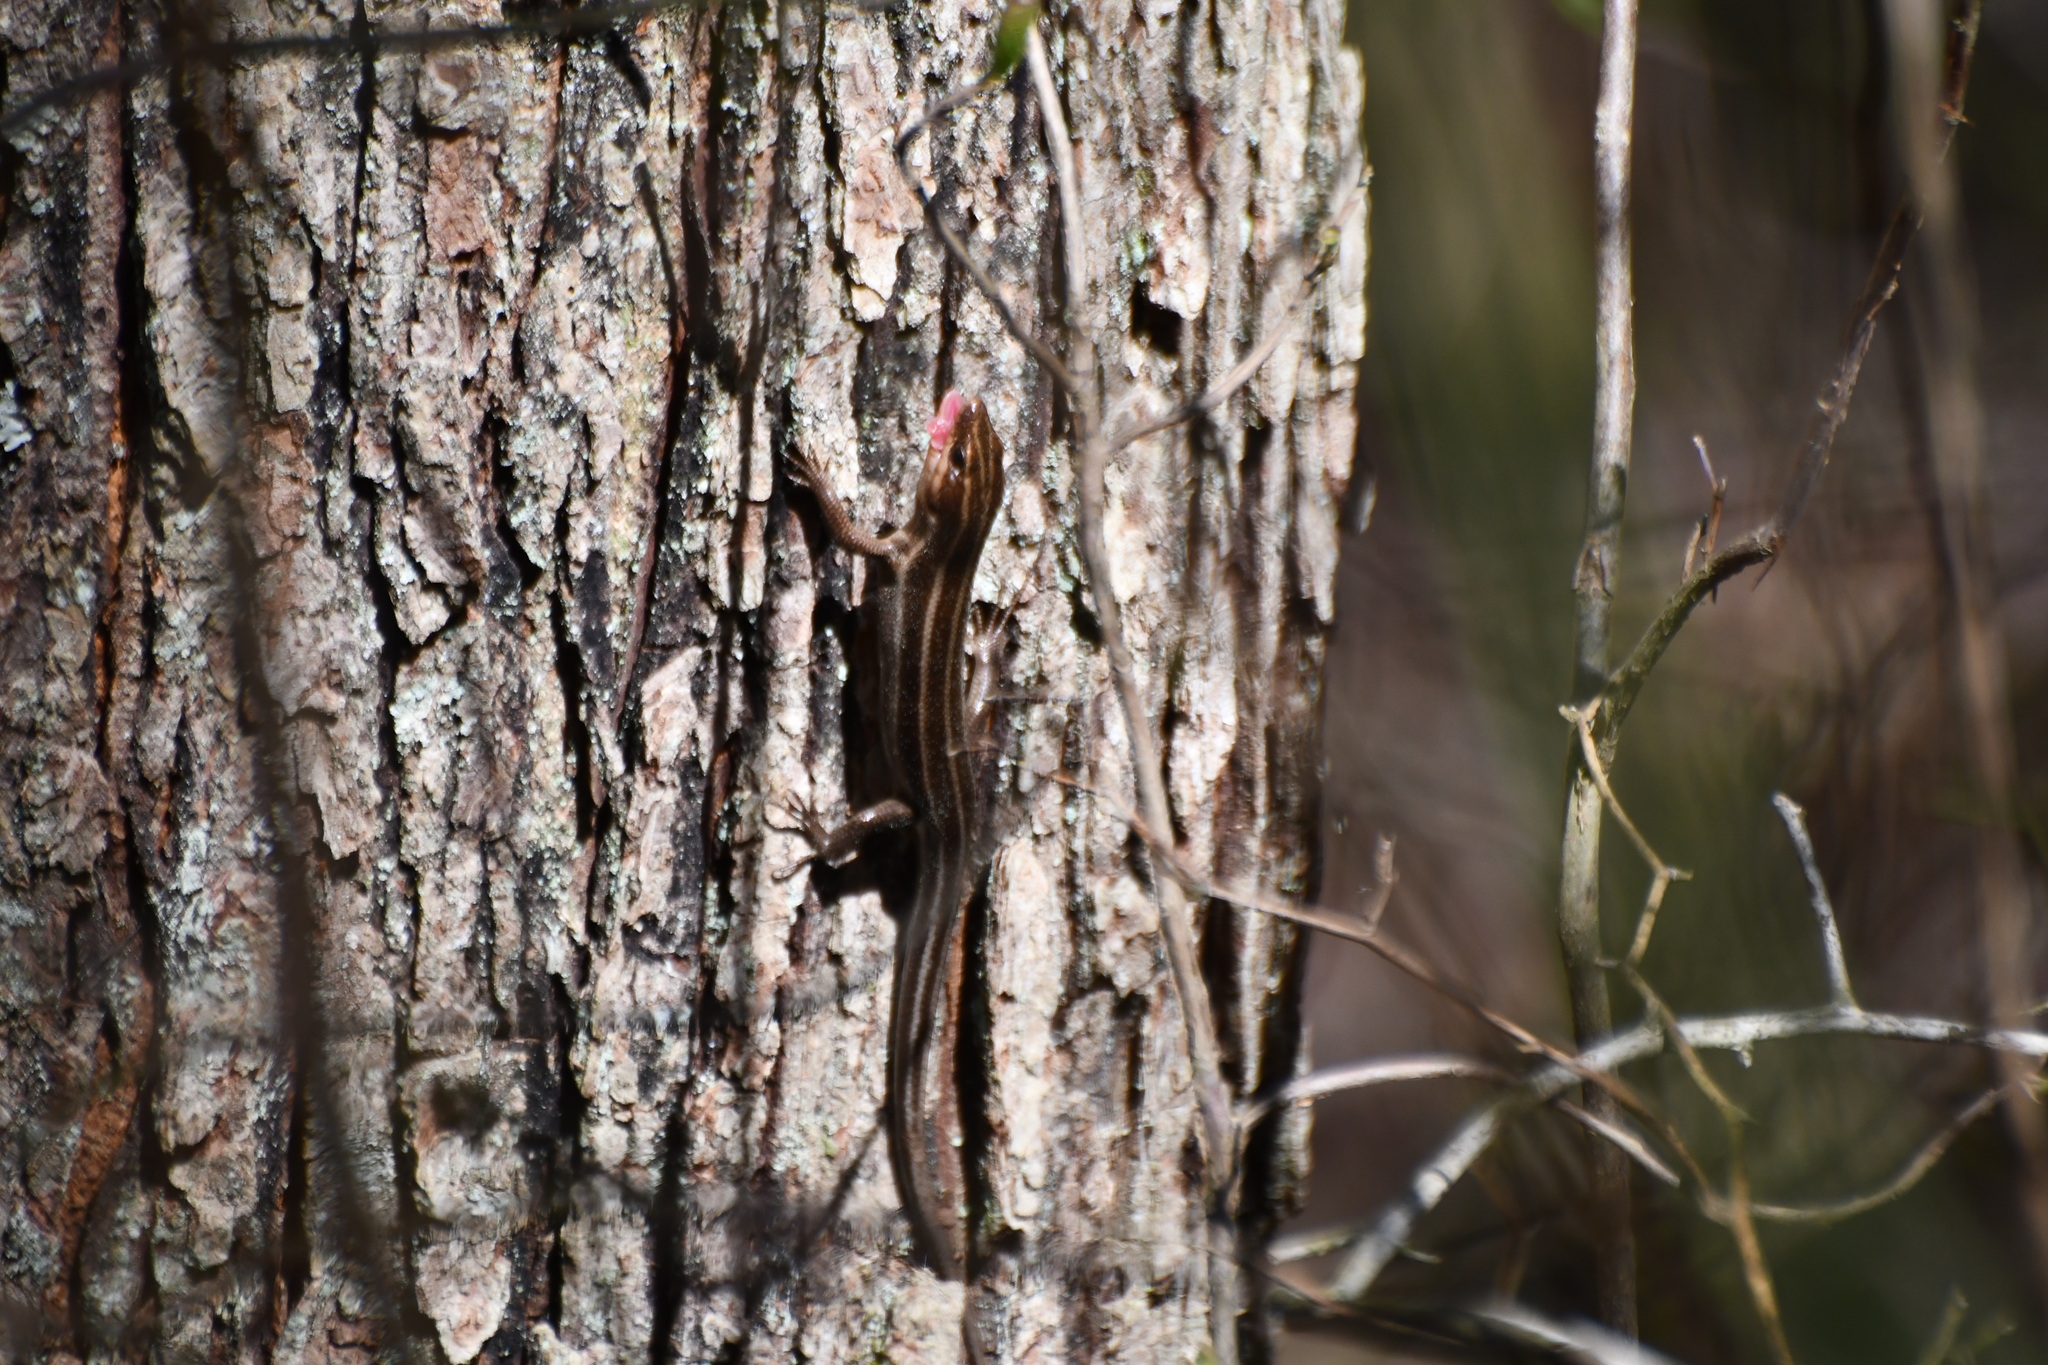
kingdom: Animalia
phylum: Chordata
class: Squamata
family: Scincidae
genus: Plestiodon
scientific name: Plestiodon fasciatus
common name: Five-lined skink
